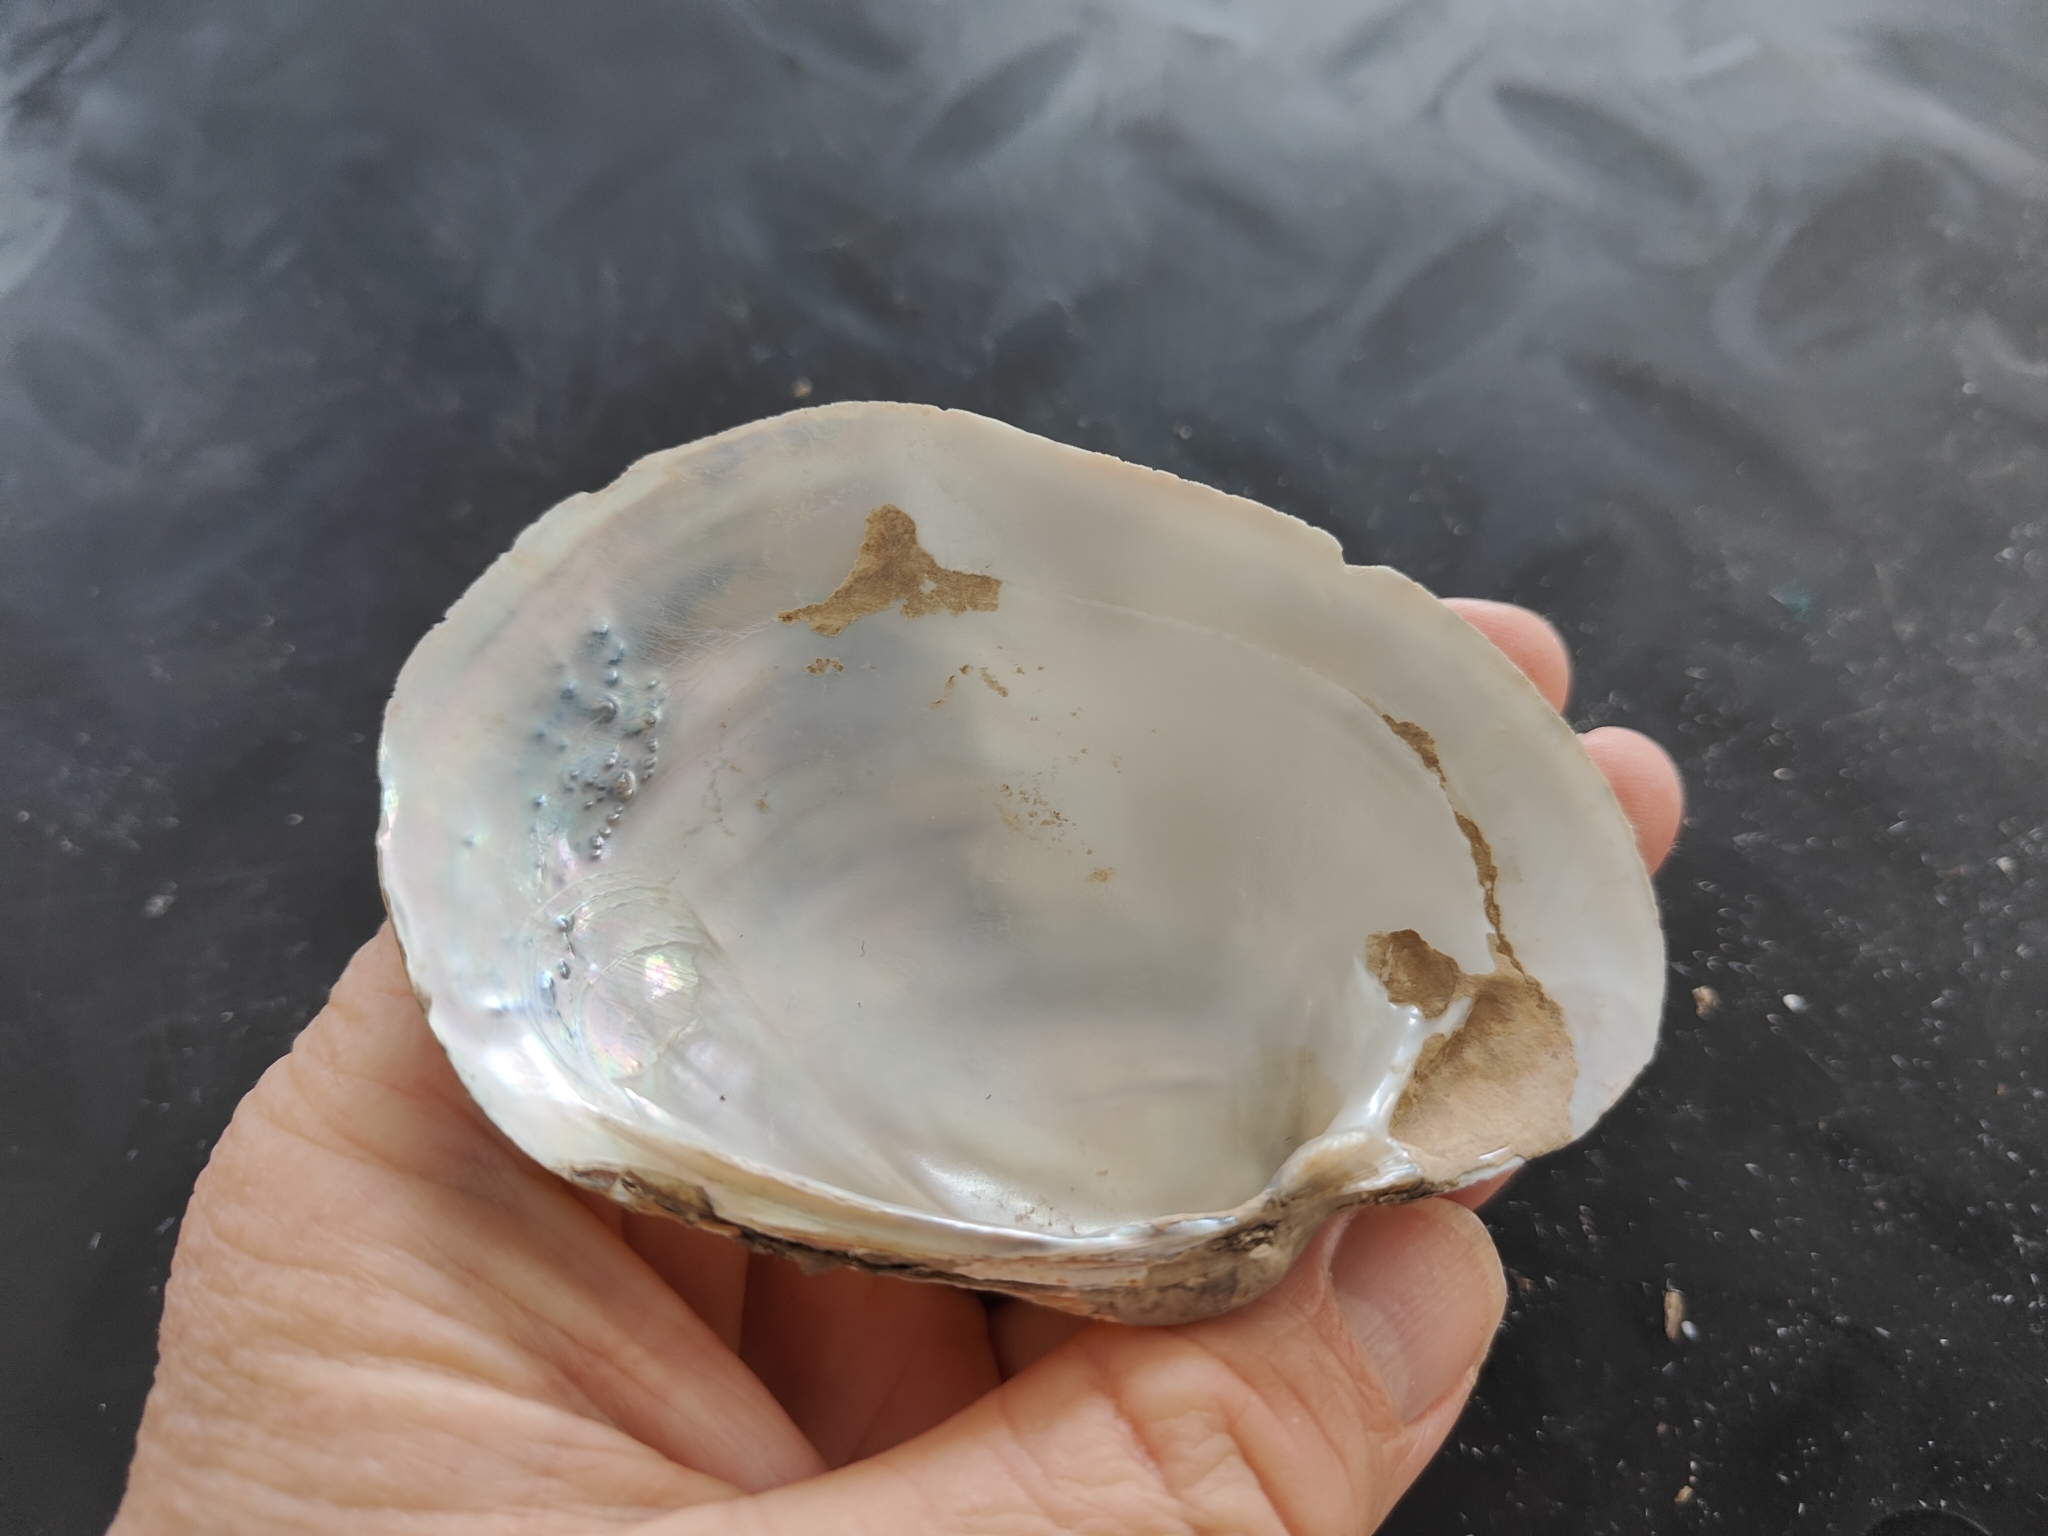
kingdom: Animalia
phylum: Mollusca
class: Bivalvia
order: Unionida
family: Unionidae
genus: Lampsilis
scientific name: Lampsilis cardium
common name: Plain pocketbook
